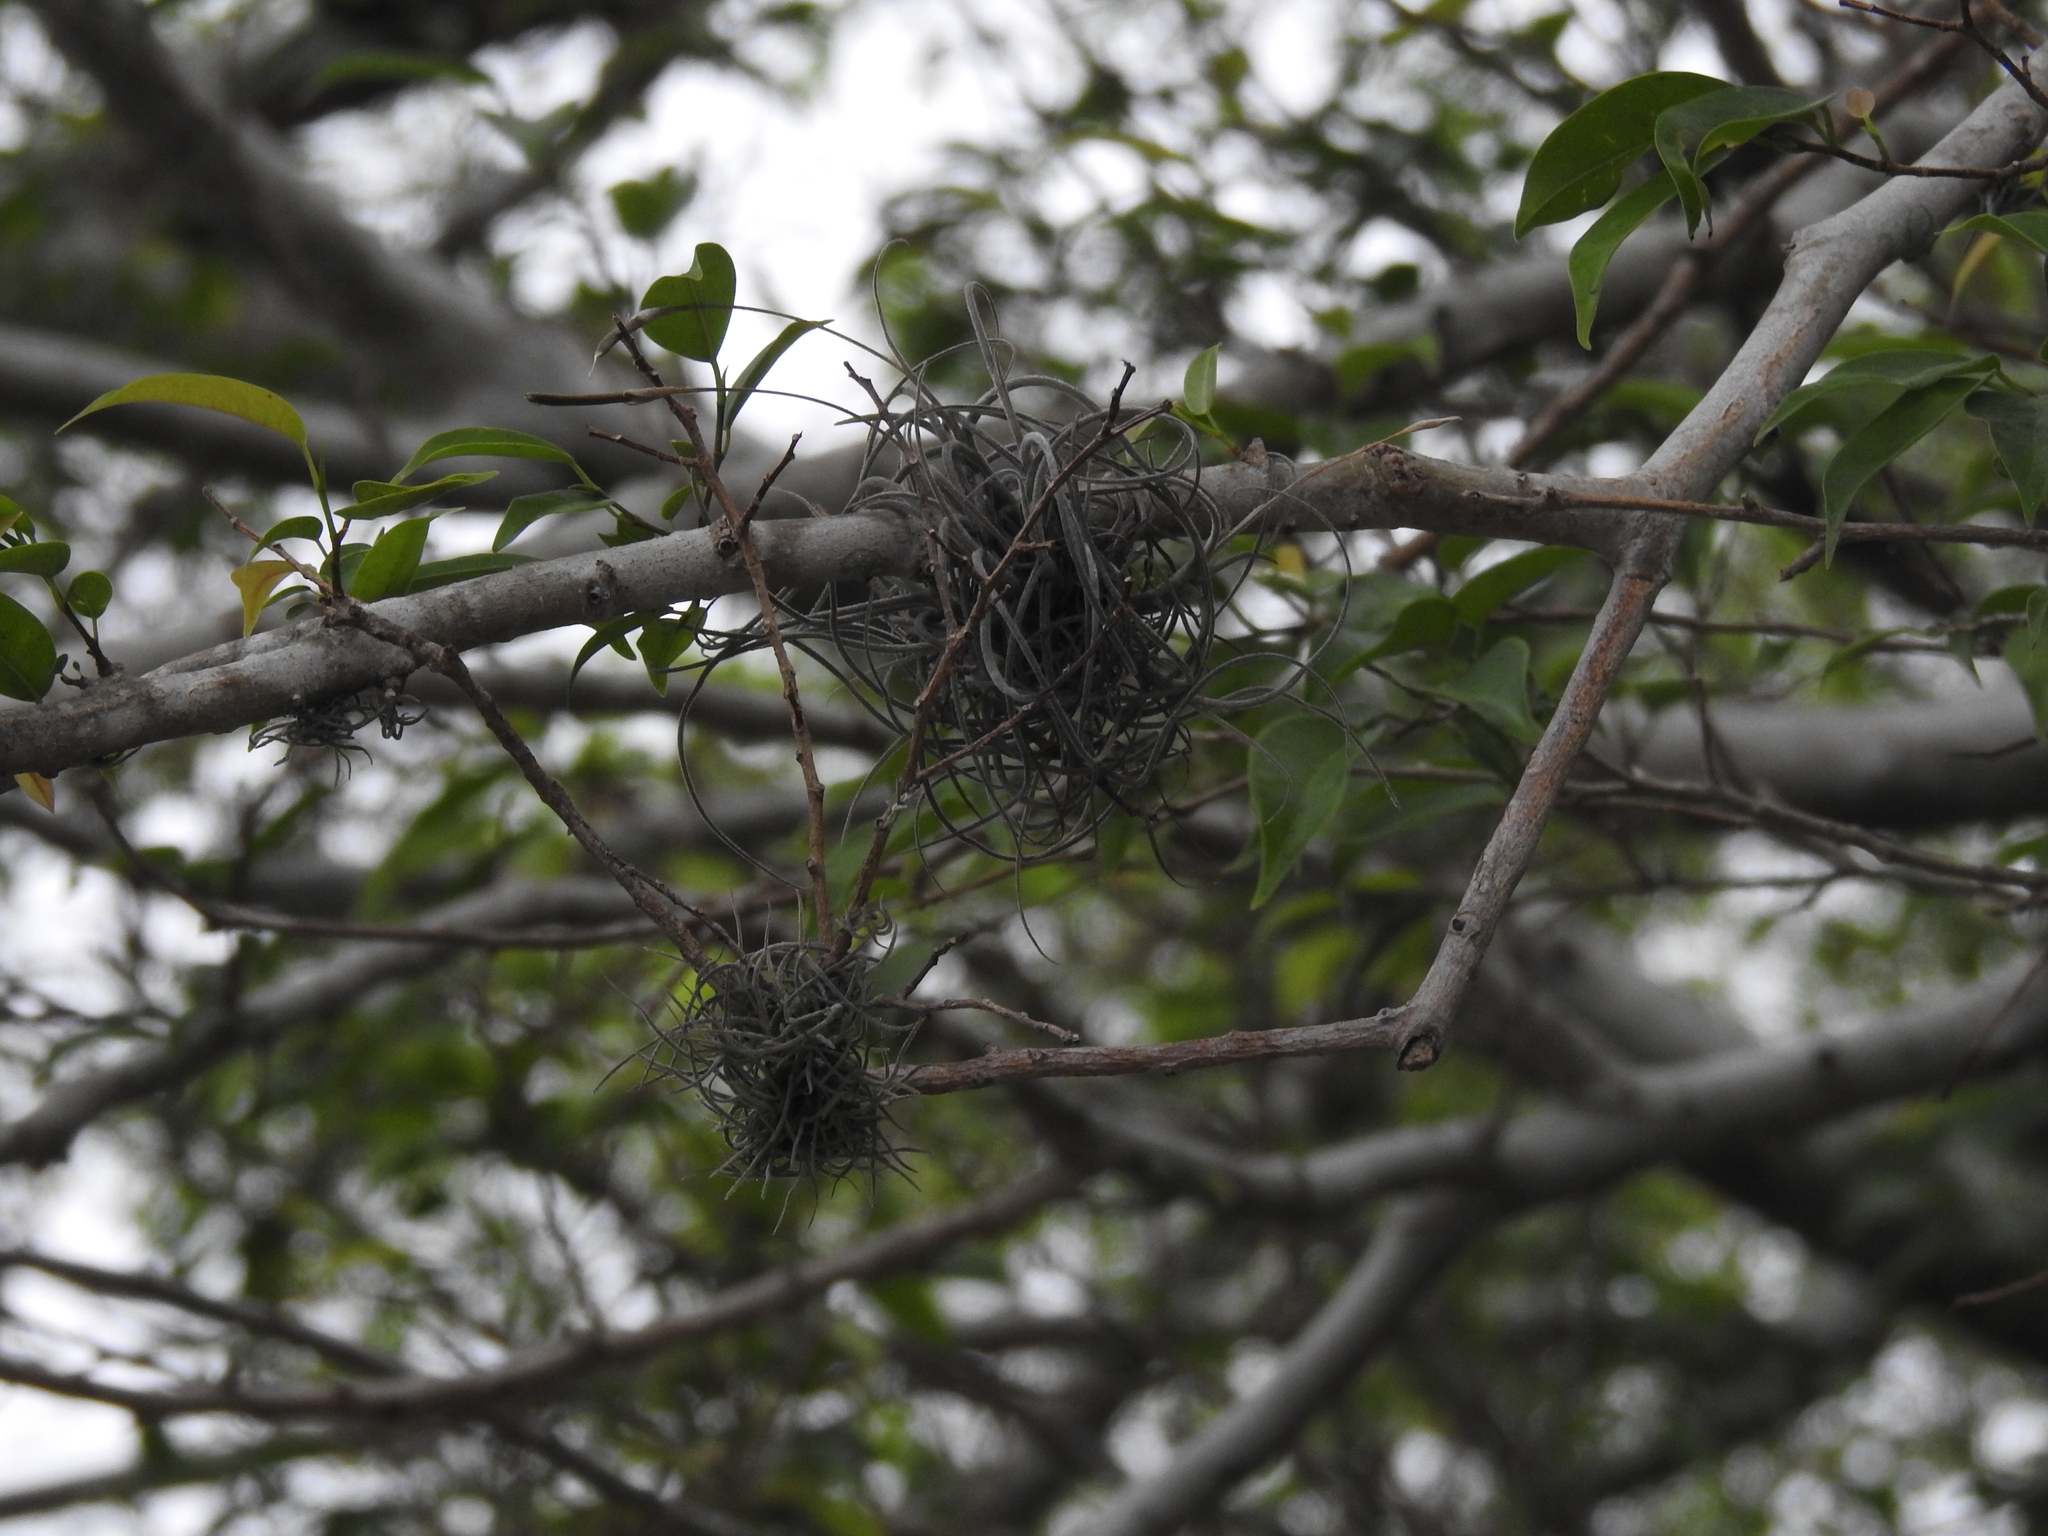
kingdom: Plantae
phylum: Tracheophyta
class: Liliopsida
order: Poales
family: Bromeliaceae
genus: Tillandsia
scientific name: Tillandsia recurvata
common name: Small ballmoss
